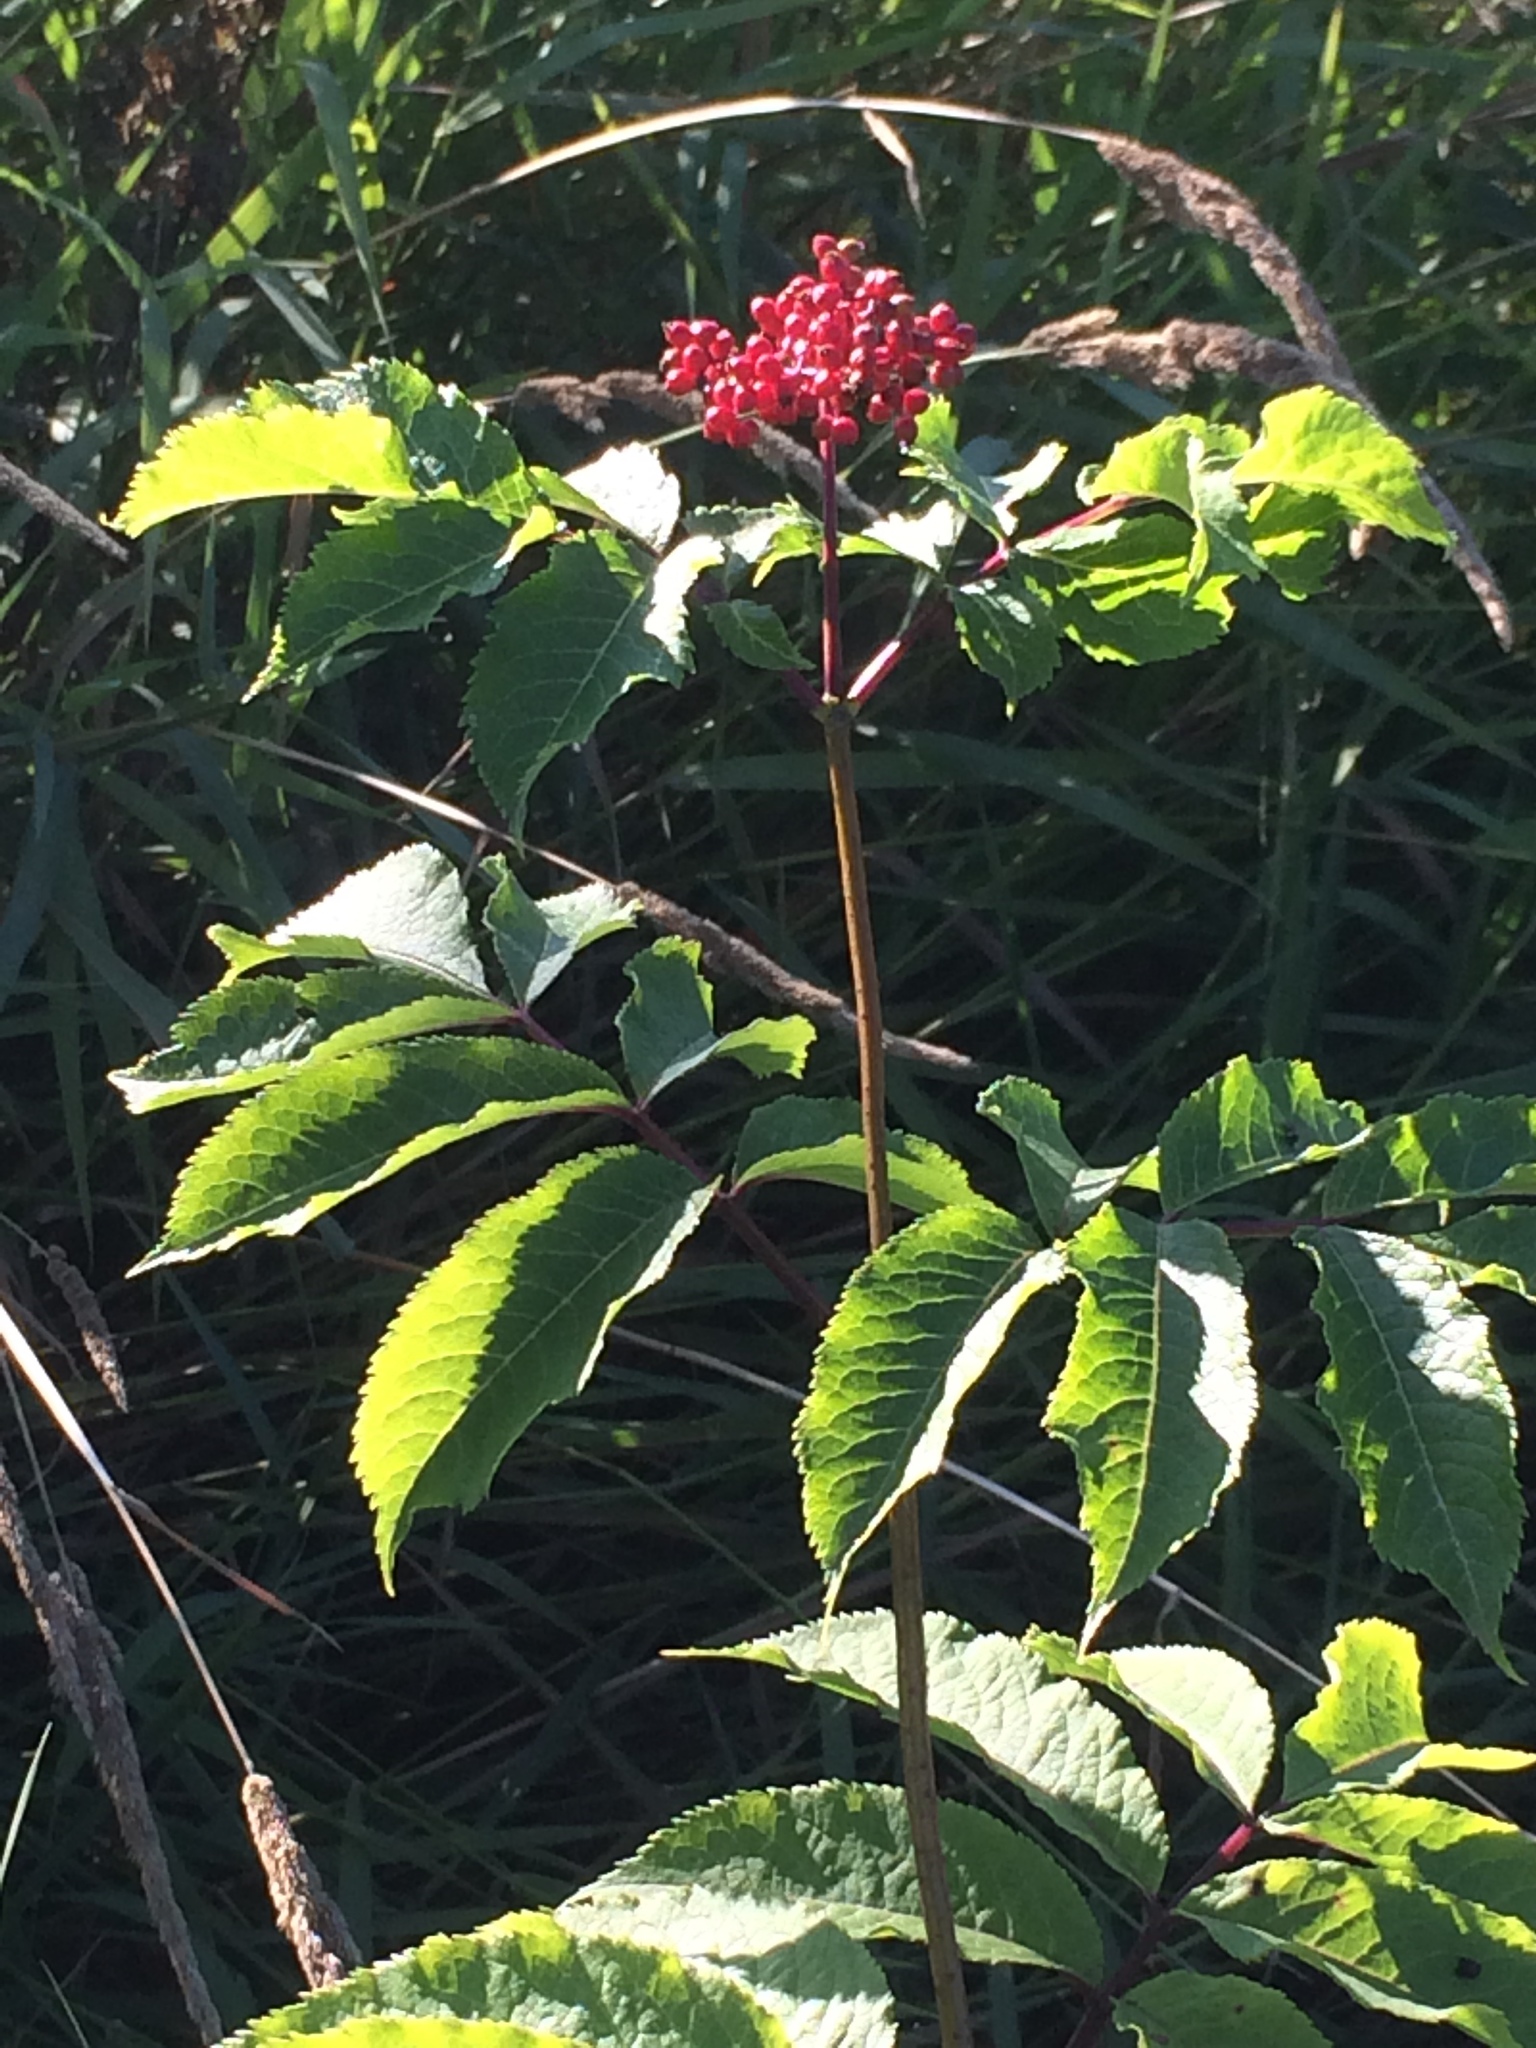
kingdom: Plantae
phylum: Tracheophyta
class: Magnoliopsida
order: Dipsacales
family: Viburnaceae
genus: Sambucus
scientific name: Sambucus racemosa
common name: Red-berried elder
